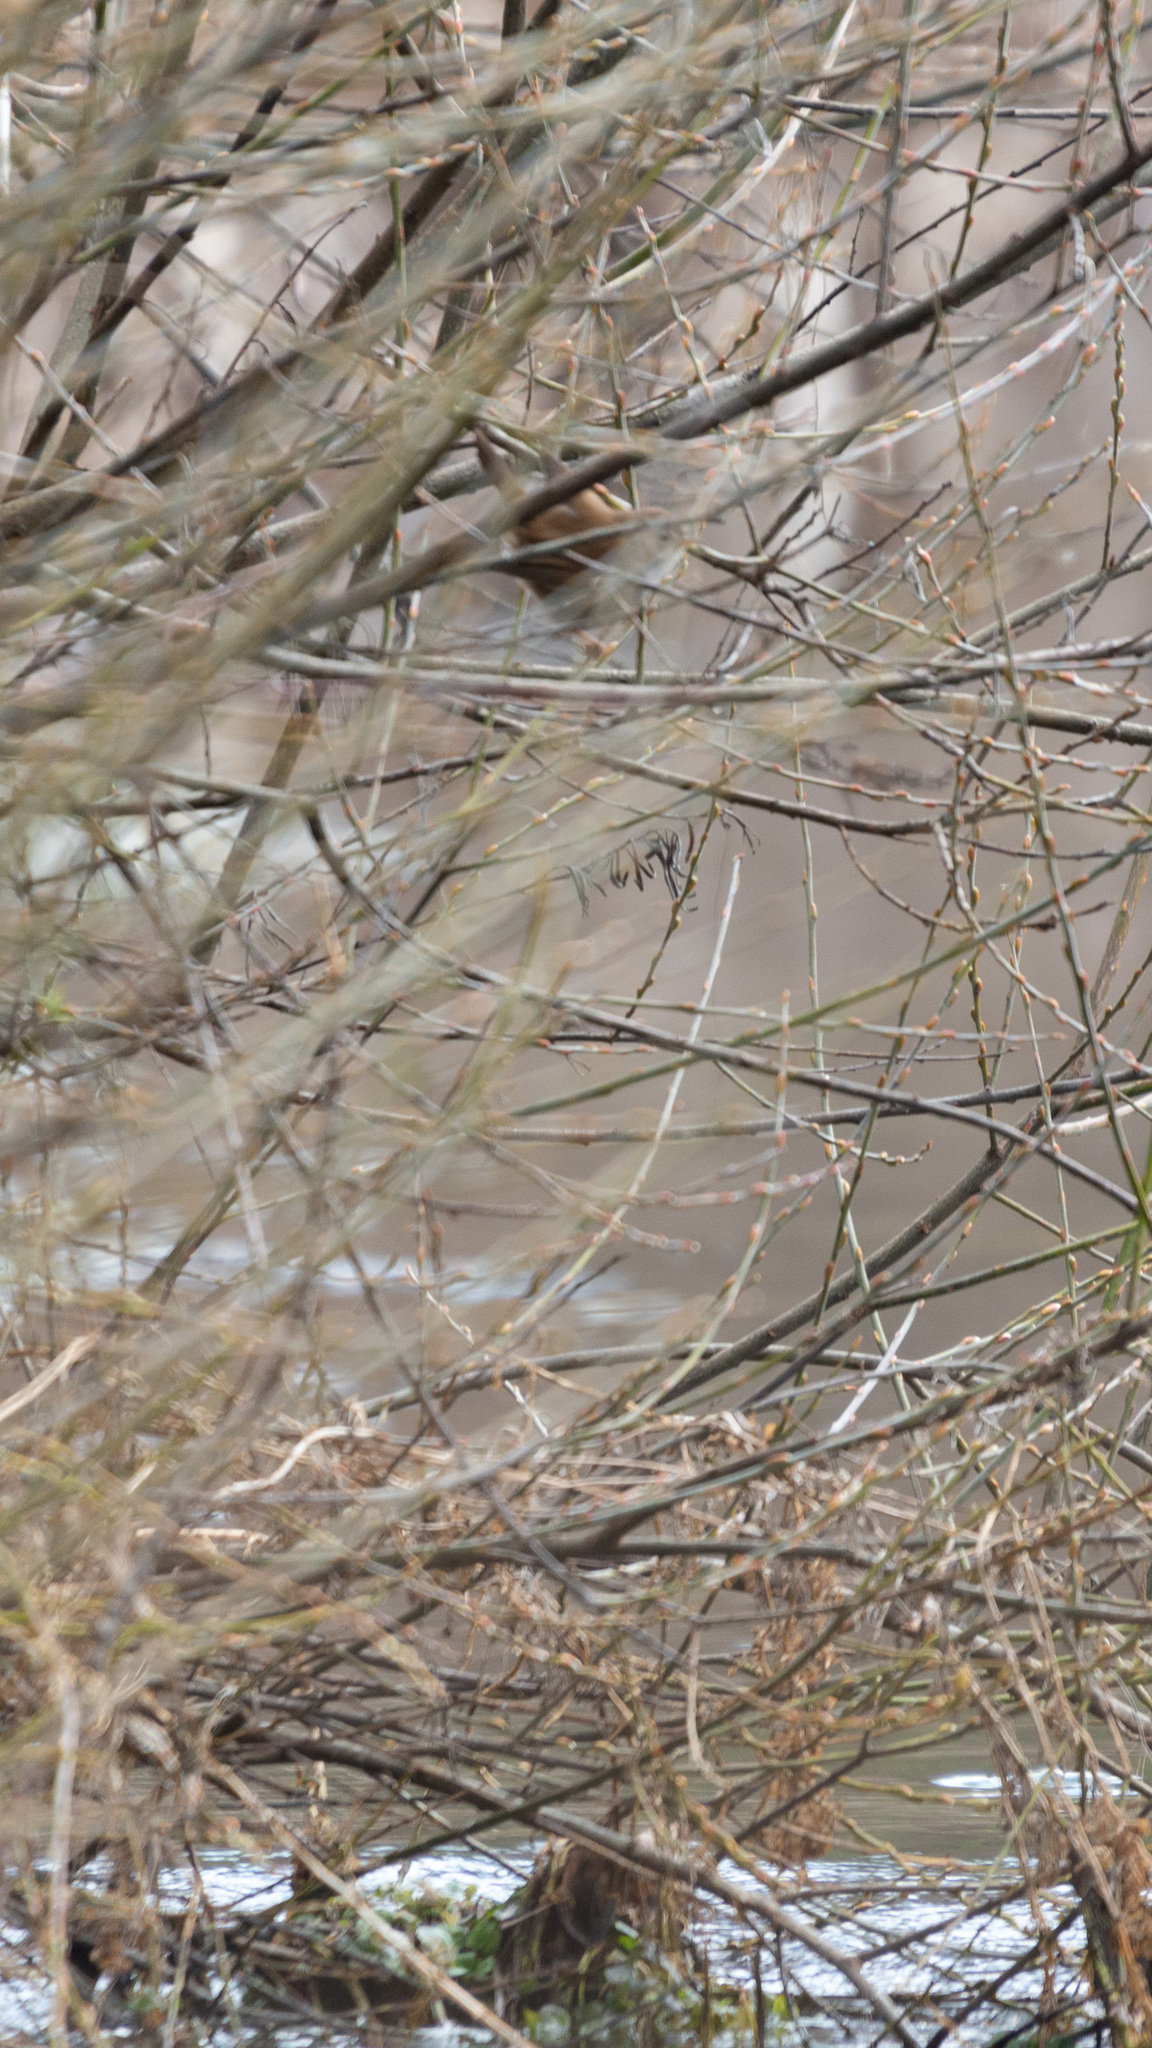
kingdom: Animalia
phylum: Chordata
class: Aves
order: Passeriformes
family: Cettiidae
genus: Cettia
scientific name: Cettia cetti
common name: Cetti's warbler
